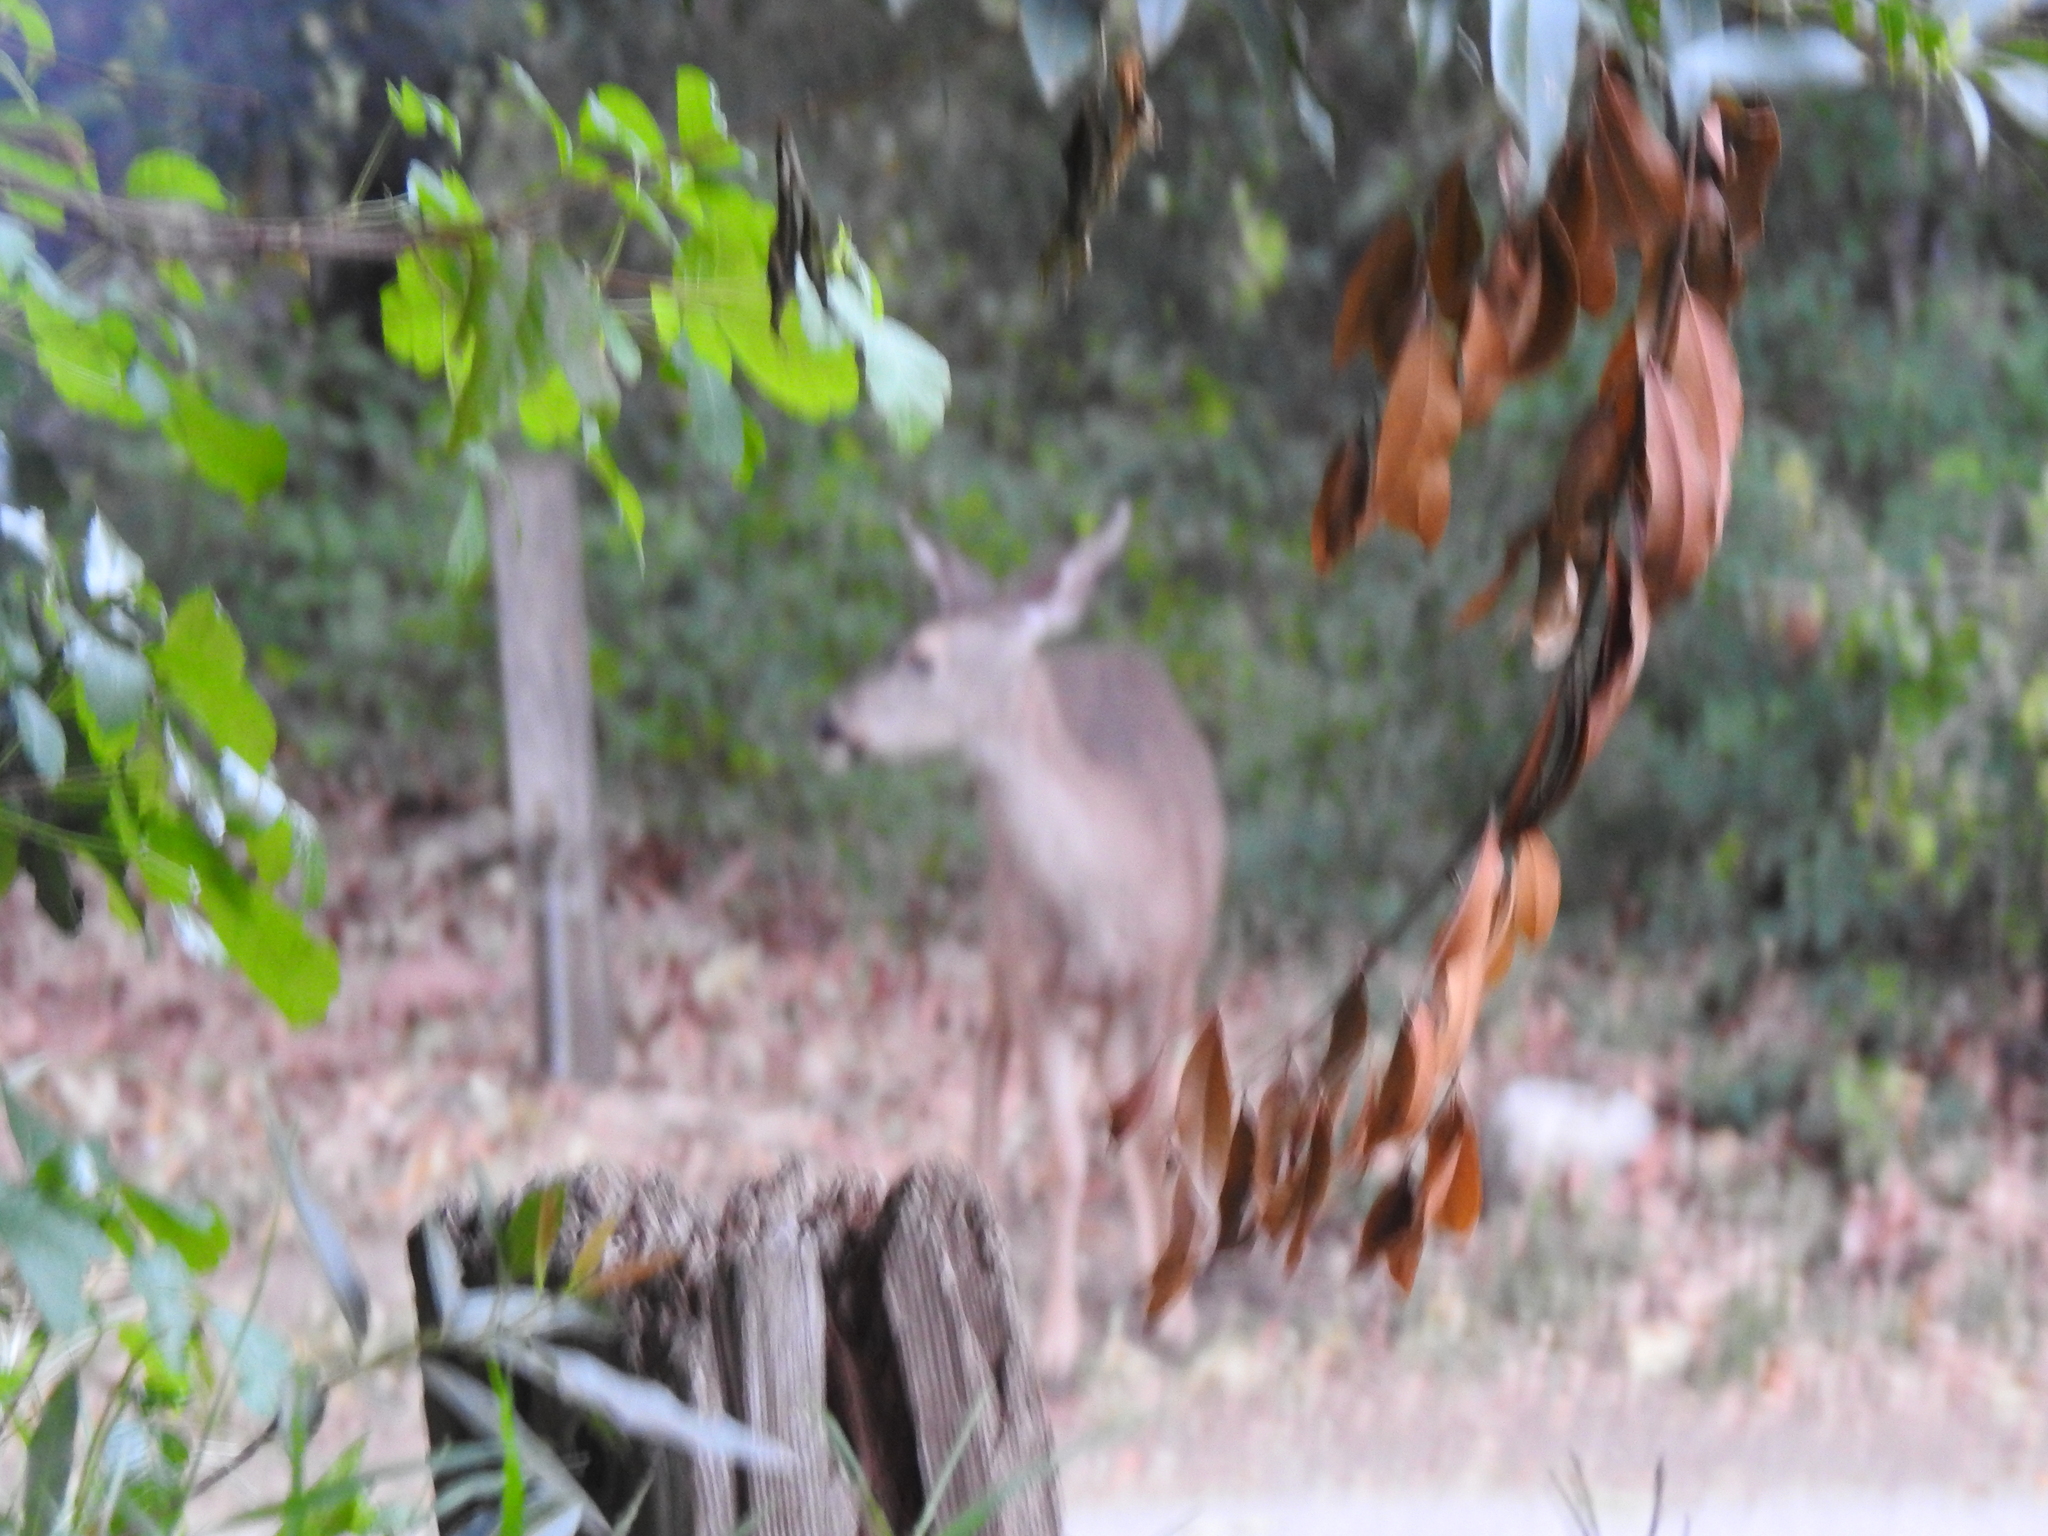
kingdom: Animalia
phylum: Chordata
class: Mammalia
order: Artiodactyla
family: Cervidae
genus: Odocoileus
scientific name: Odocoileus hemionus
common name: Mule deer
